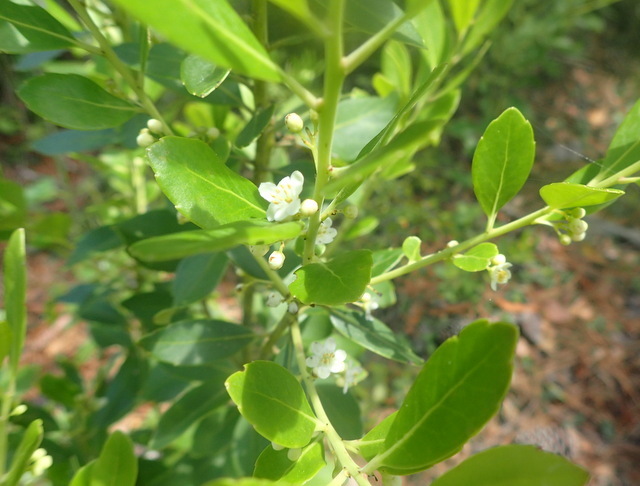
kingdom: Plantae
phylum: Tracheophyta
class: Magnoliopsida
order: Aquifoliales
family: Aquifoliaceae
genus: Ilex
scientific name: Ilex glabra
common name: Bitter gallberry
